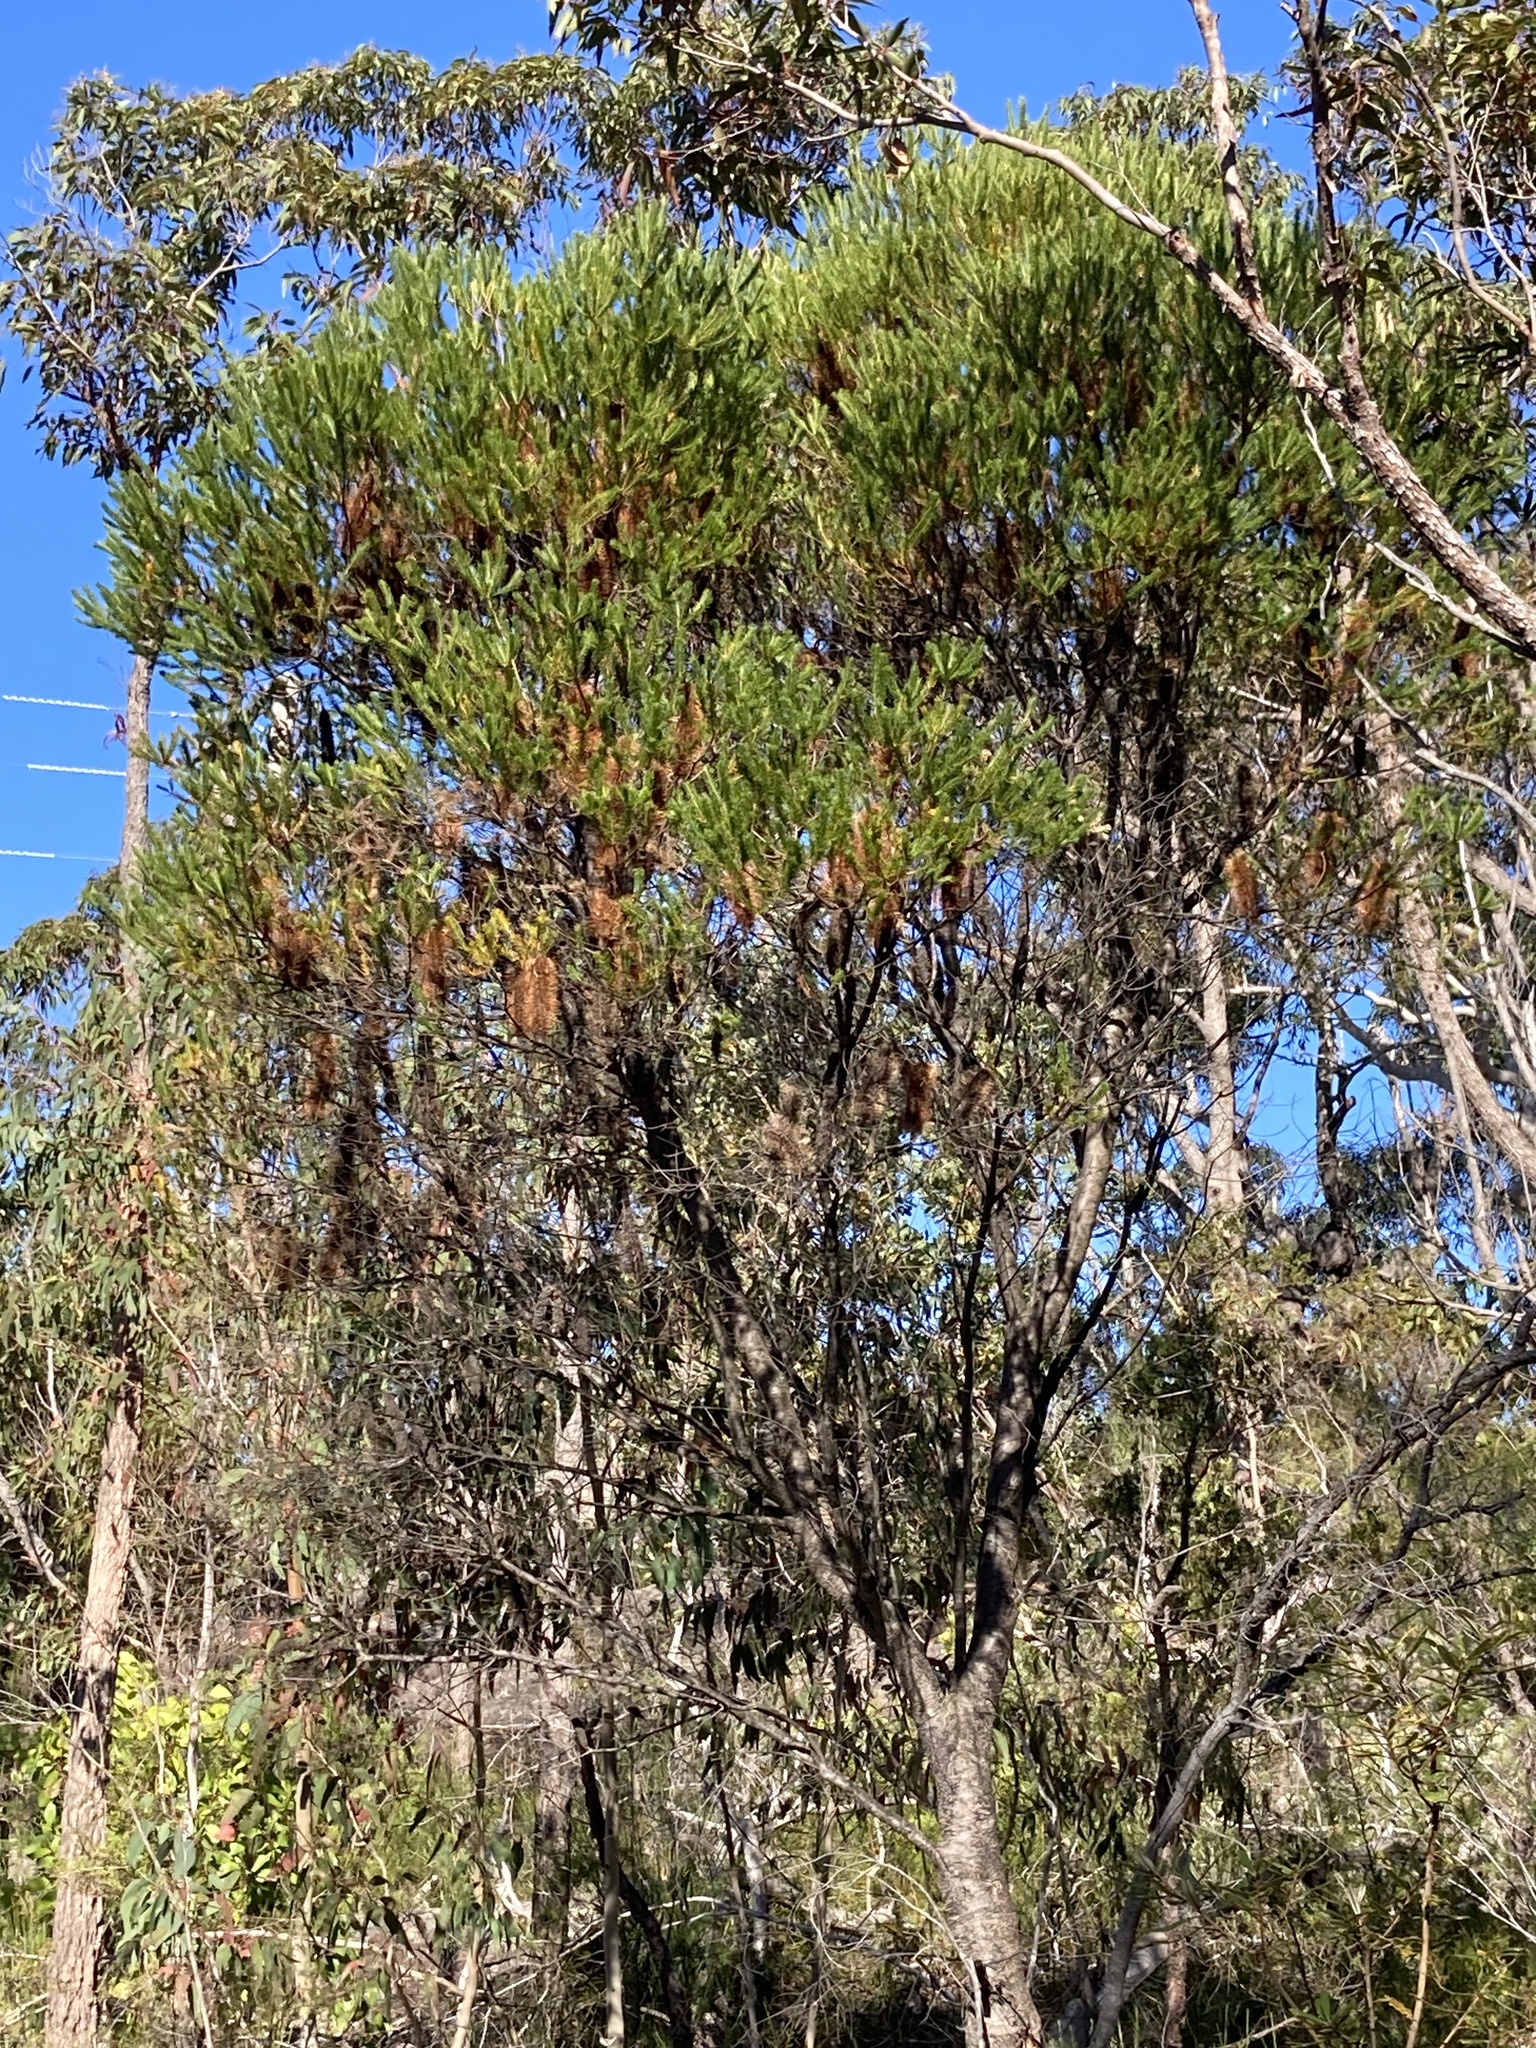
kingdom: Plantae
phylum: Tracheophyta
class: Magnoliopsida
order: Proteales
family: Proteaceae
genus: Banksia
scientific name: Banksia ericifolia
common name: Heath-leaf banksia
